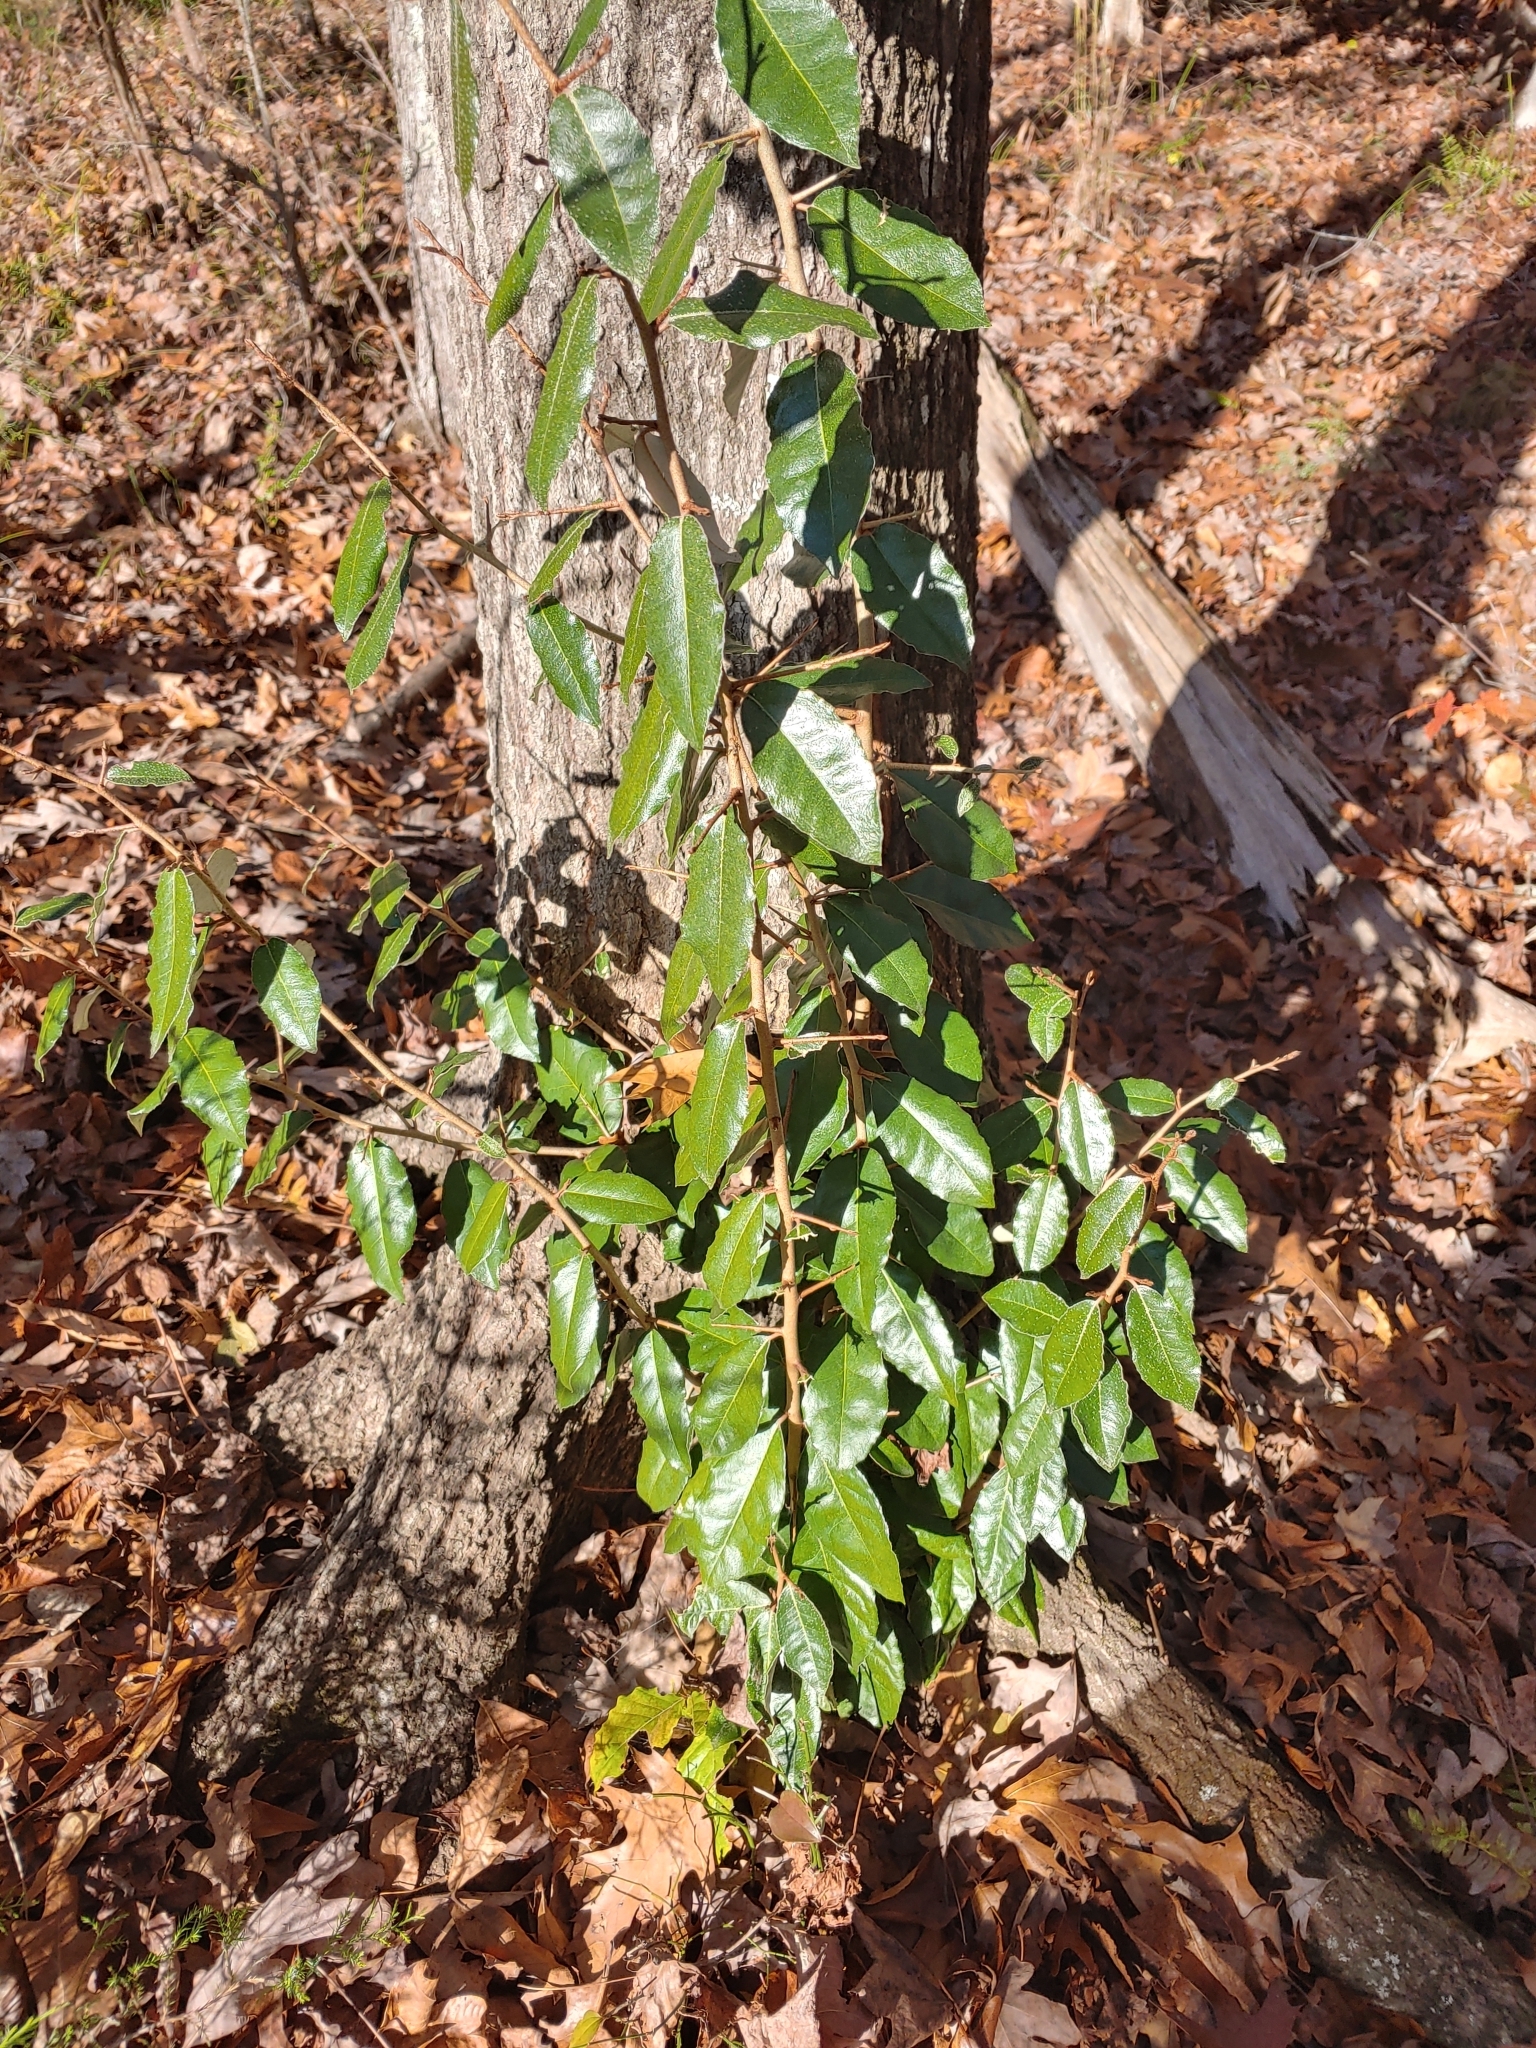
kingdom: Plantae
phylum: Tracheophyta
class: Magnoliopsida
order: Rosales
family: Elaeagnaceae
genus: Elaeagnus
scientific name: Elaeagnus pungens
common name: Spiny oleaster
